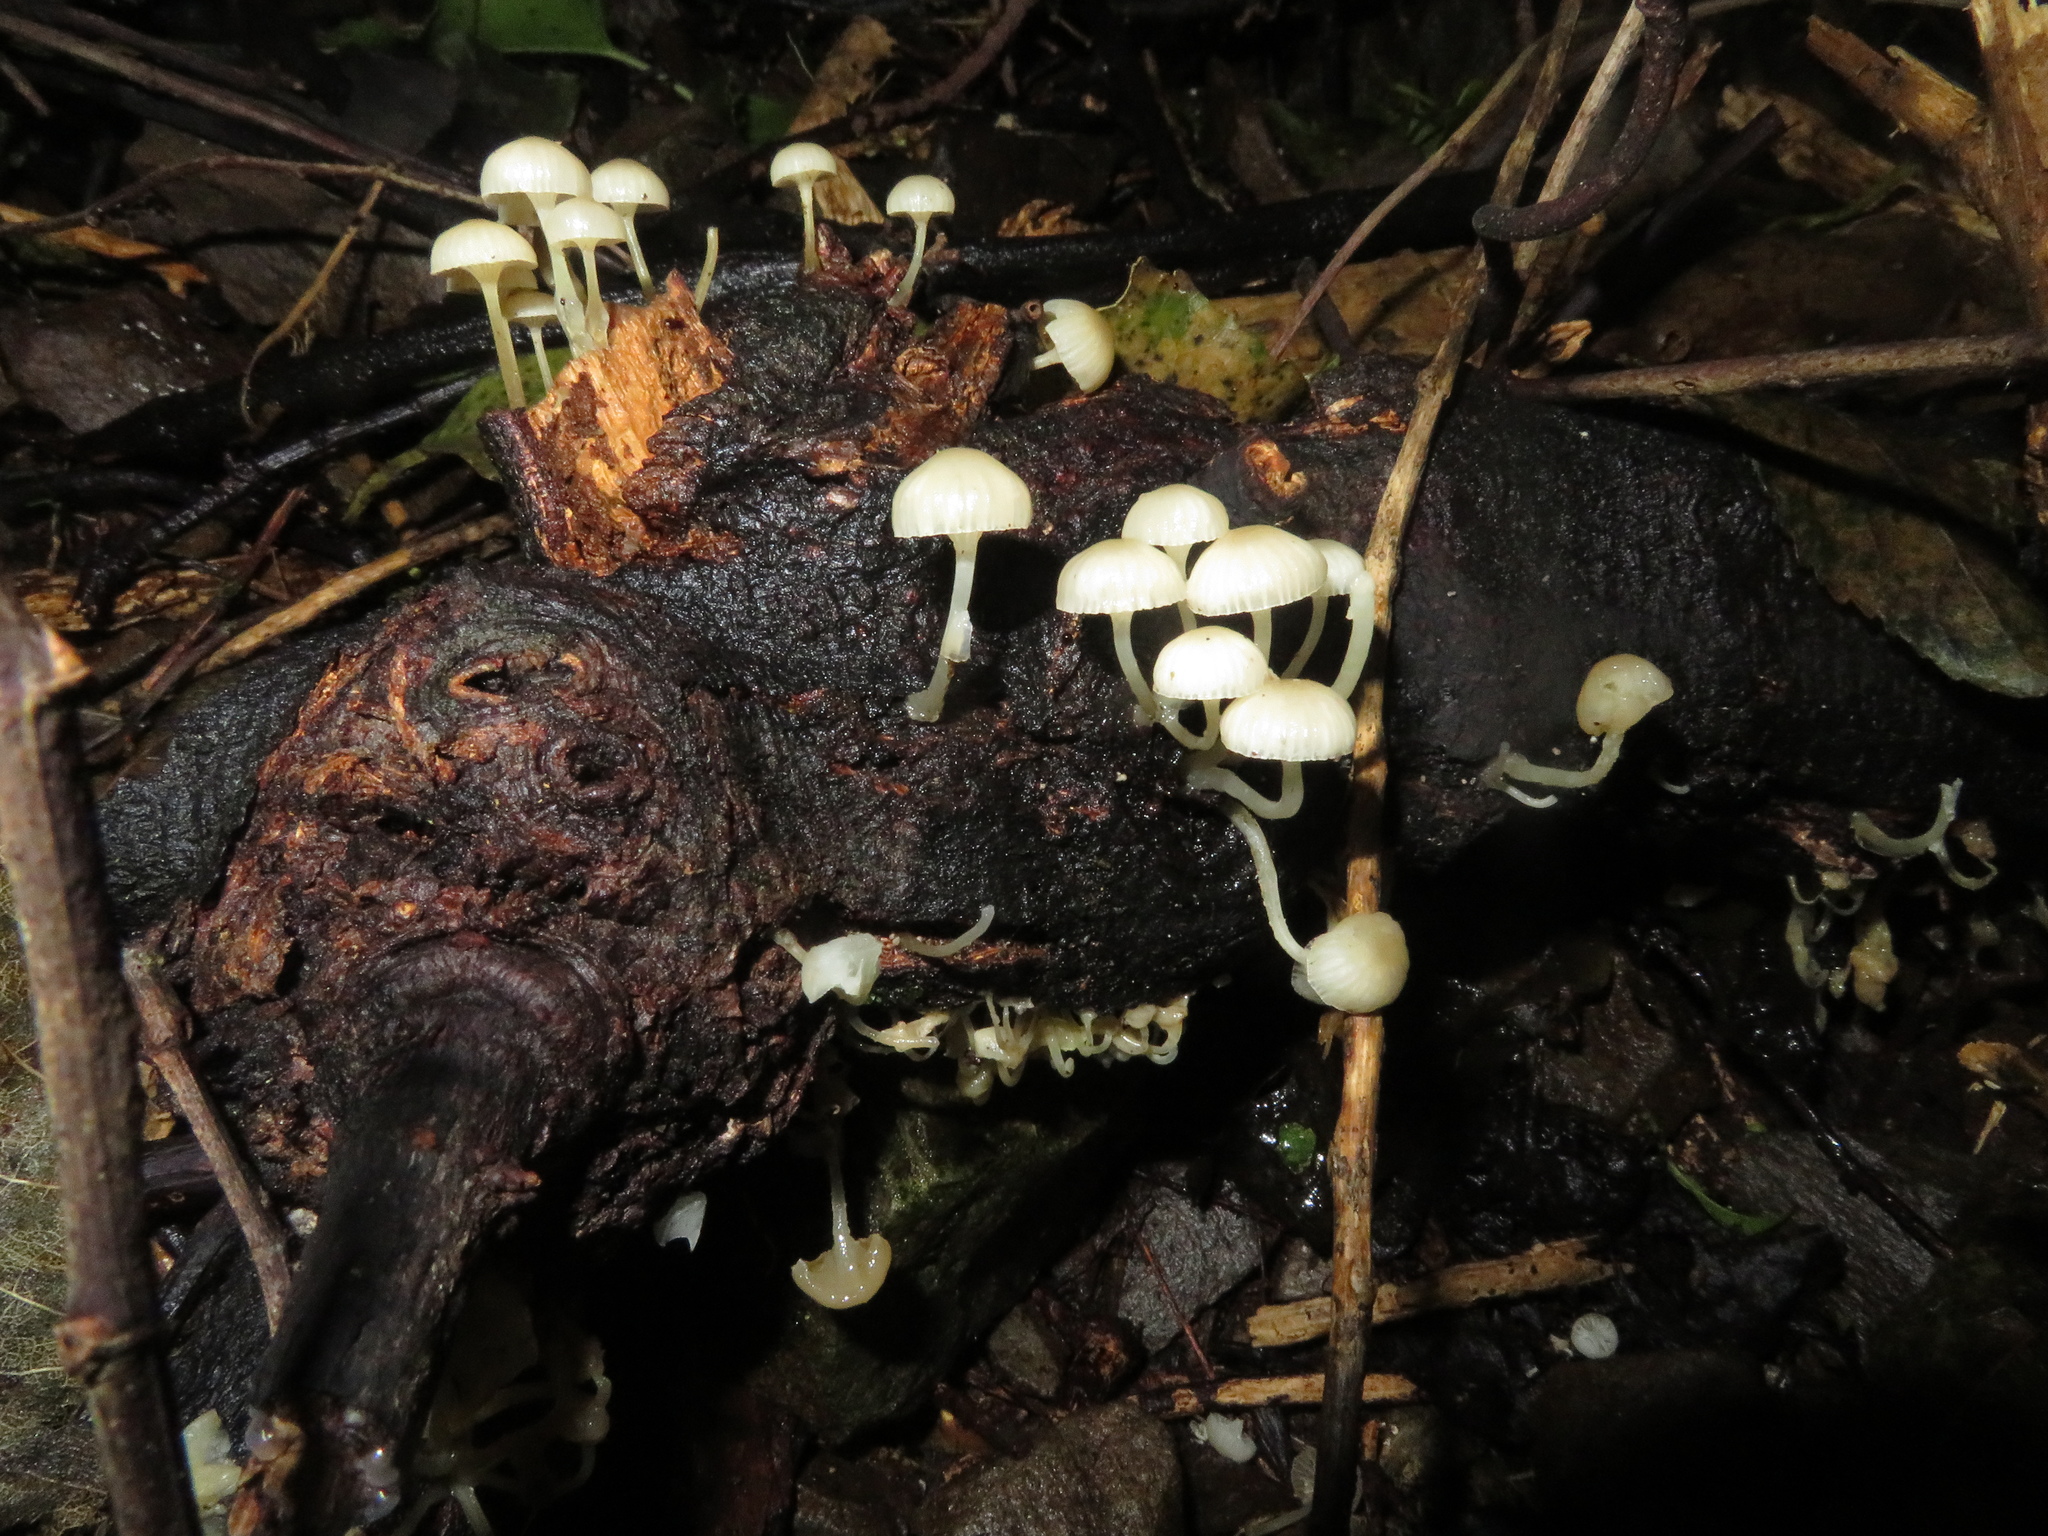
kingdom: Fungi
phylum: Basidiomycota
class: Agaricomycetes
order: Agaricales
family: Mycenaceae
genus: Roridomyces
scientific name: Roridomyces austrororidus
